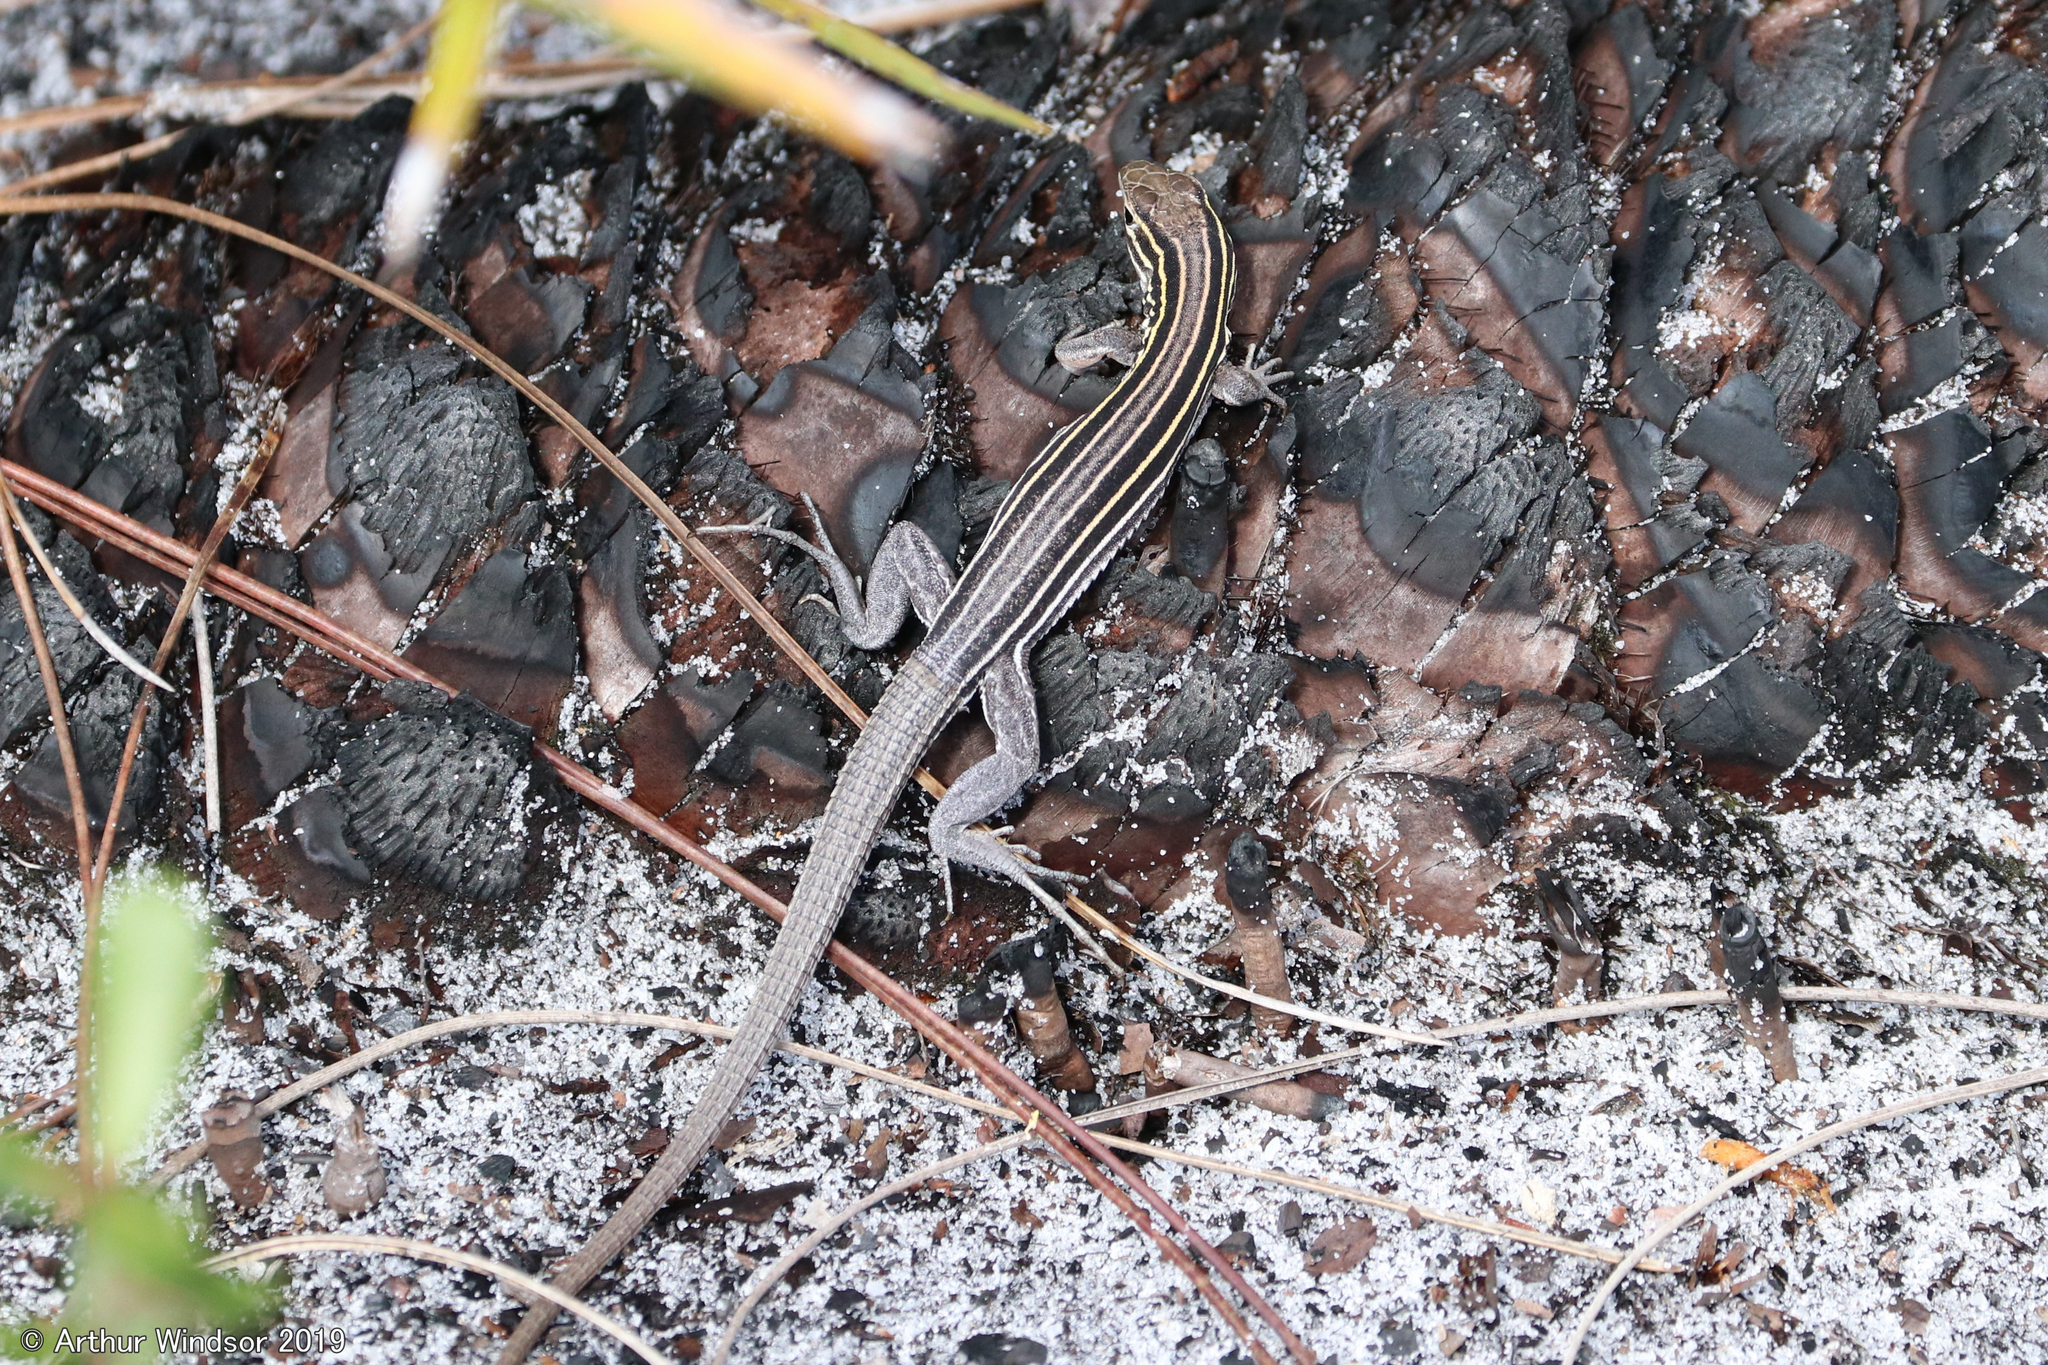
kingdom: Animalia
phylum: Chordata
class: Squamata
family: Teiidae
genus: Aspidoscelis
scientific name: Aspidoscelis sexlineatus
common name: Six-lined racerunner
